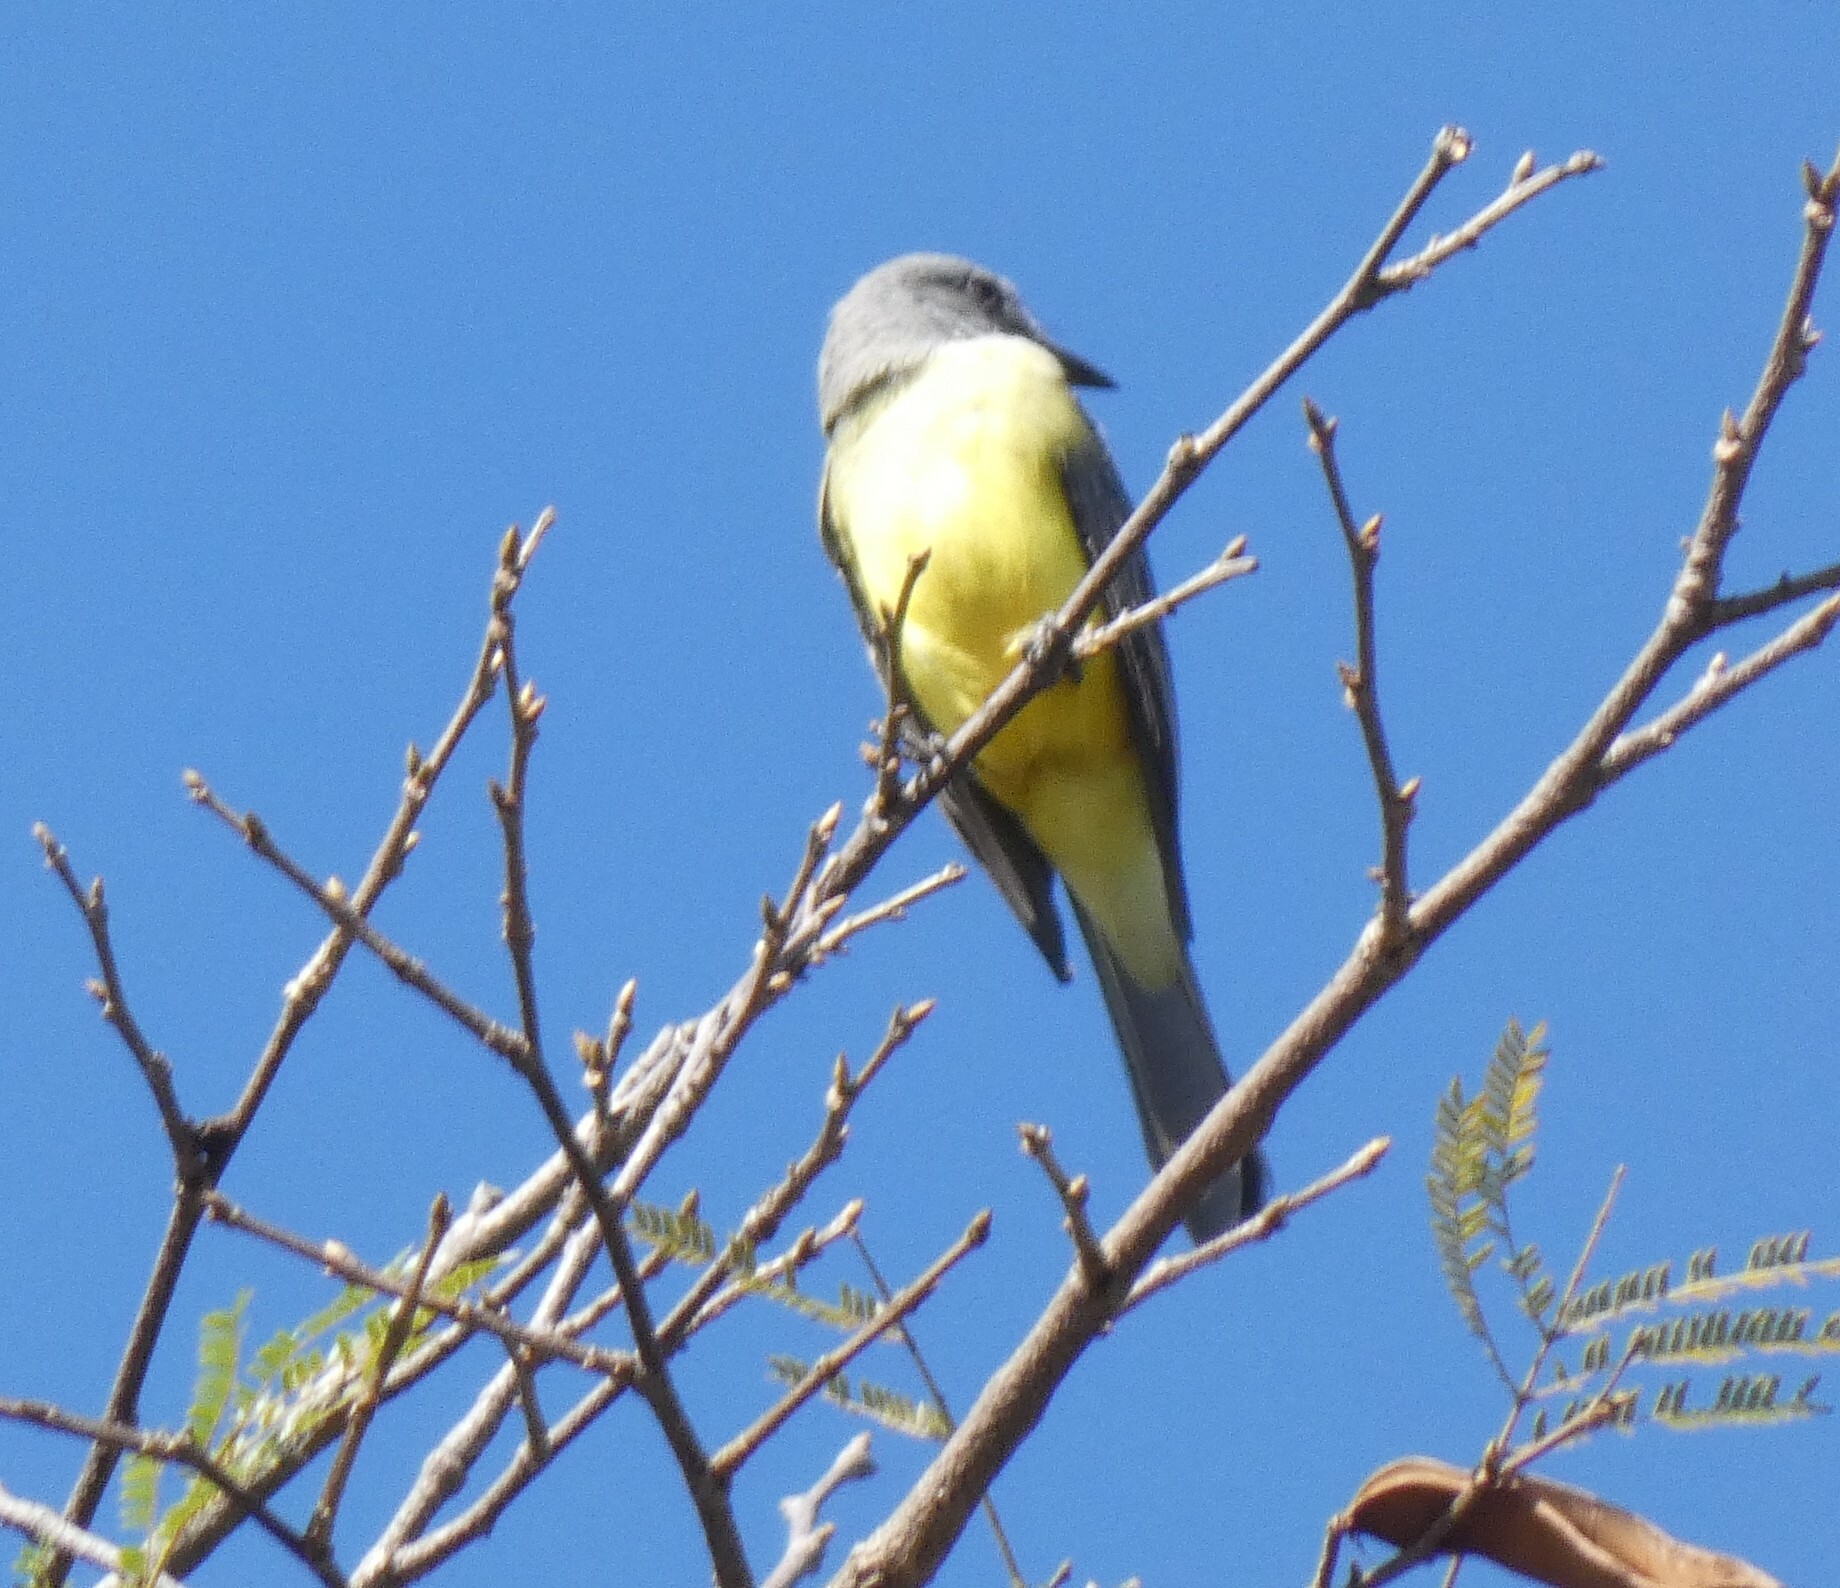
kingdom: Animalia
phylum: Chordata
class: Aves
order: Passeriformes
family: Tyrannidae
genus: Tyrannus
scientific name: Tyrannus melancholicus
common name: Tropical kingbird
